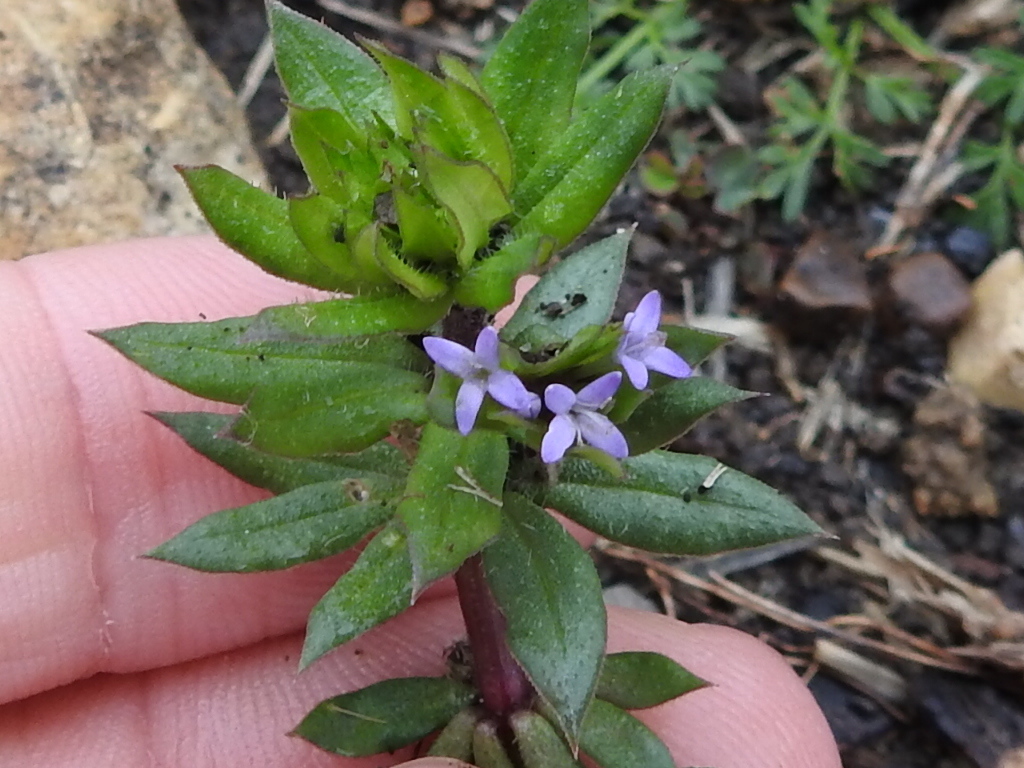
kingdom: Plantae
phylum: Tracheophyta
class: Magnoliopsida
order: Gentianales
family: Rubiaceae
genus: Sherardia
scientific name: Sherardia arvensis
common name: Field madder
